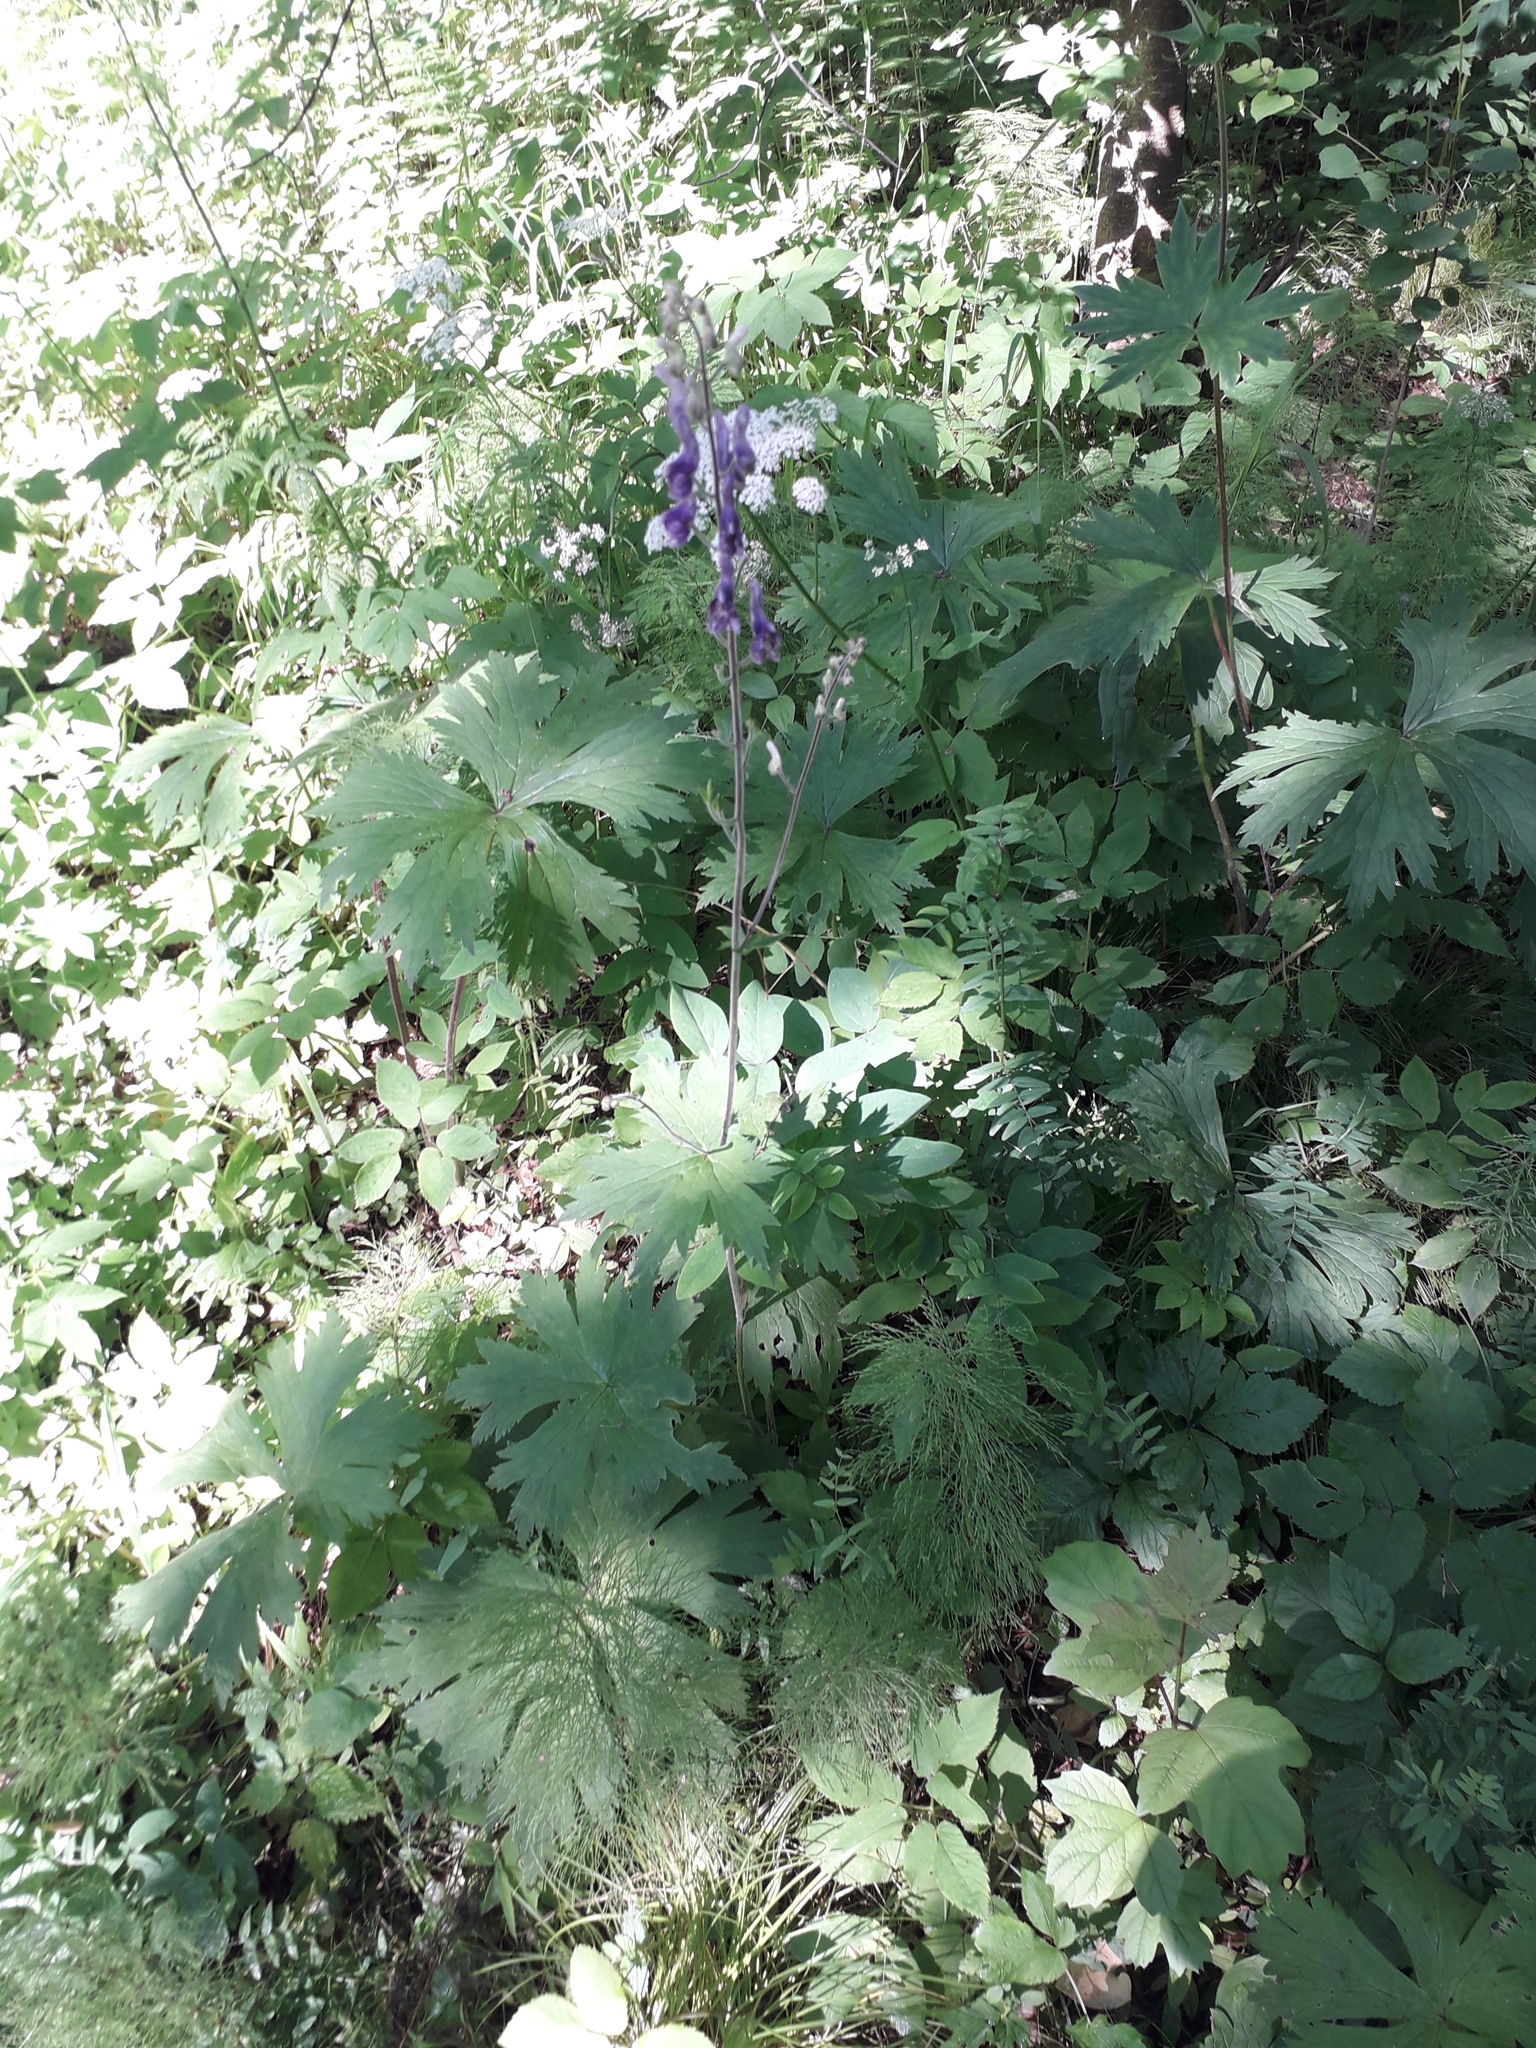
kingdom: Plantae
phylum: Tracheophyta
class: Magnoliopsida
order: Ranunculales
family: Ranunculaceae
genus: Aconitum
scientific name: Aconitum septentrionale
